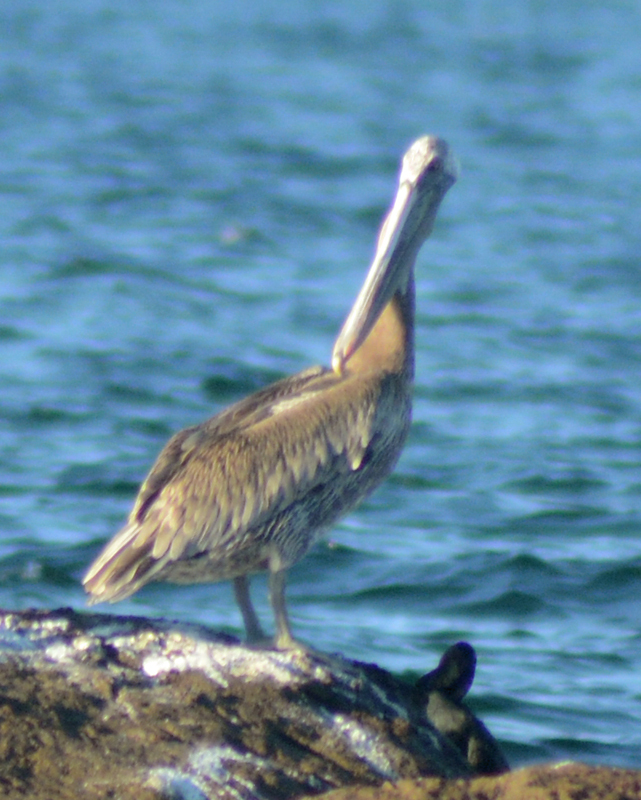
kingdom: Animalia
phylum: Chordata
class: Aves
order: Pelecaniformes
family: Pelecanidae
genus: Pelecanus
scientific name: Pelecanus occidentalis
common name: Brown pelican
